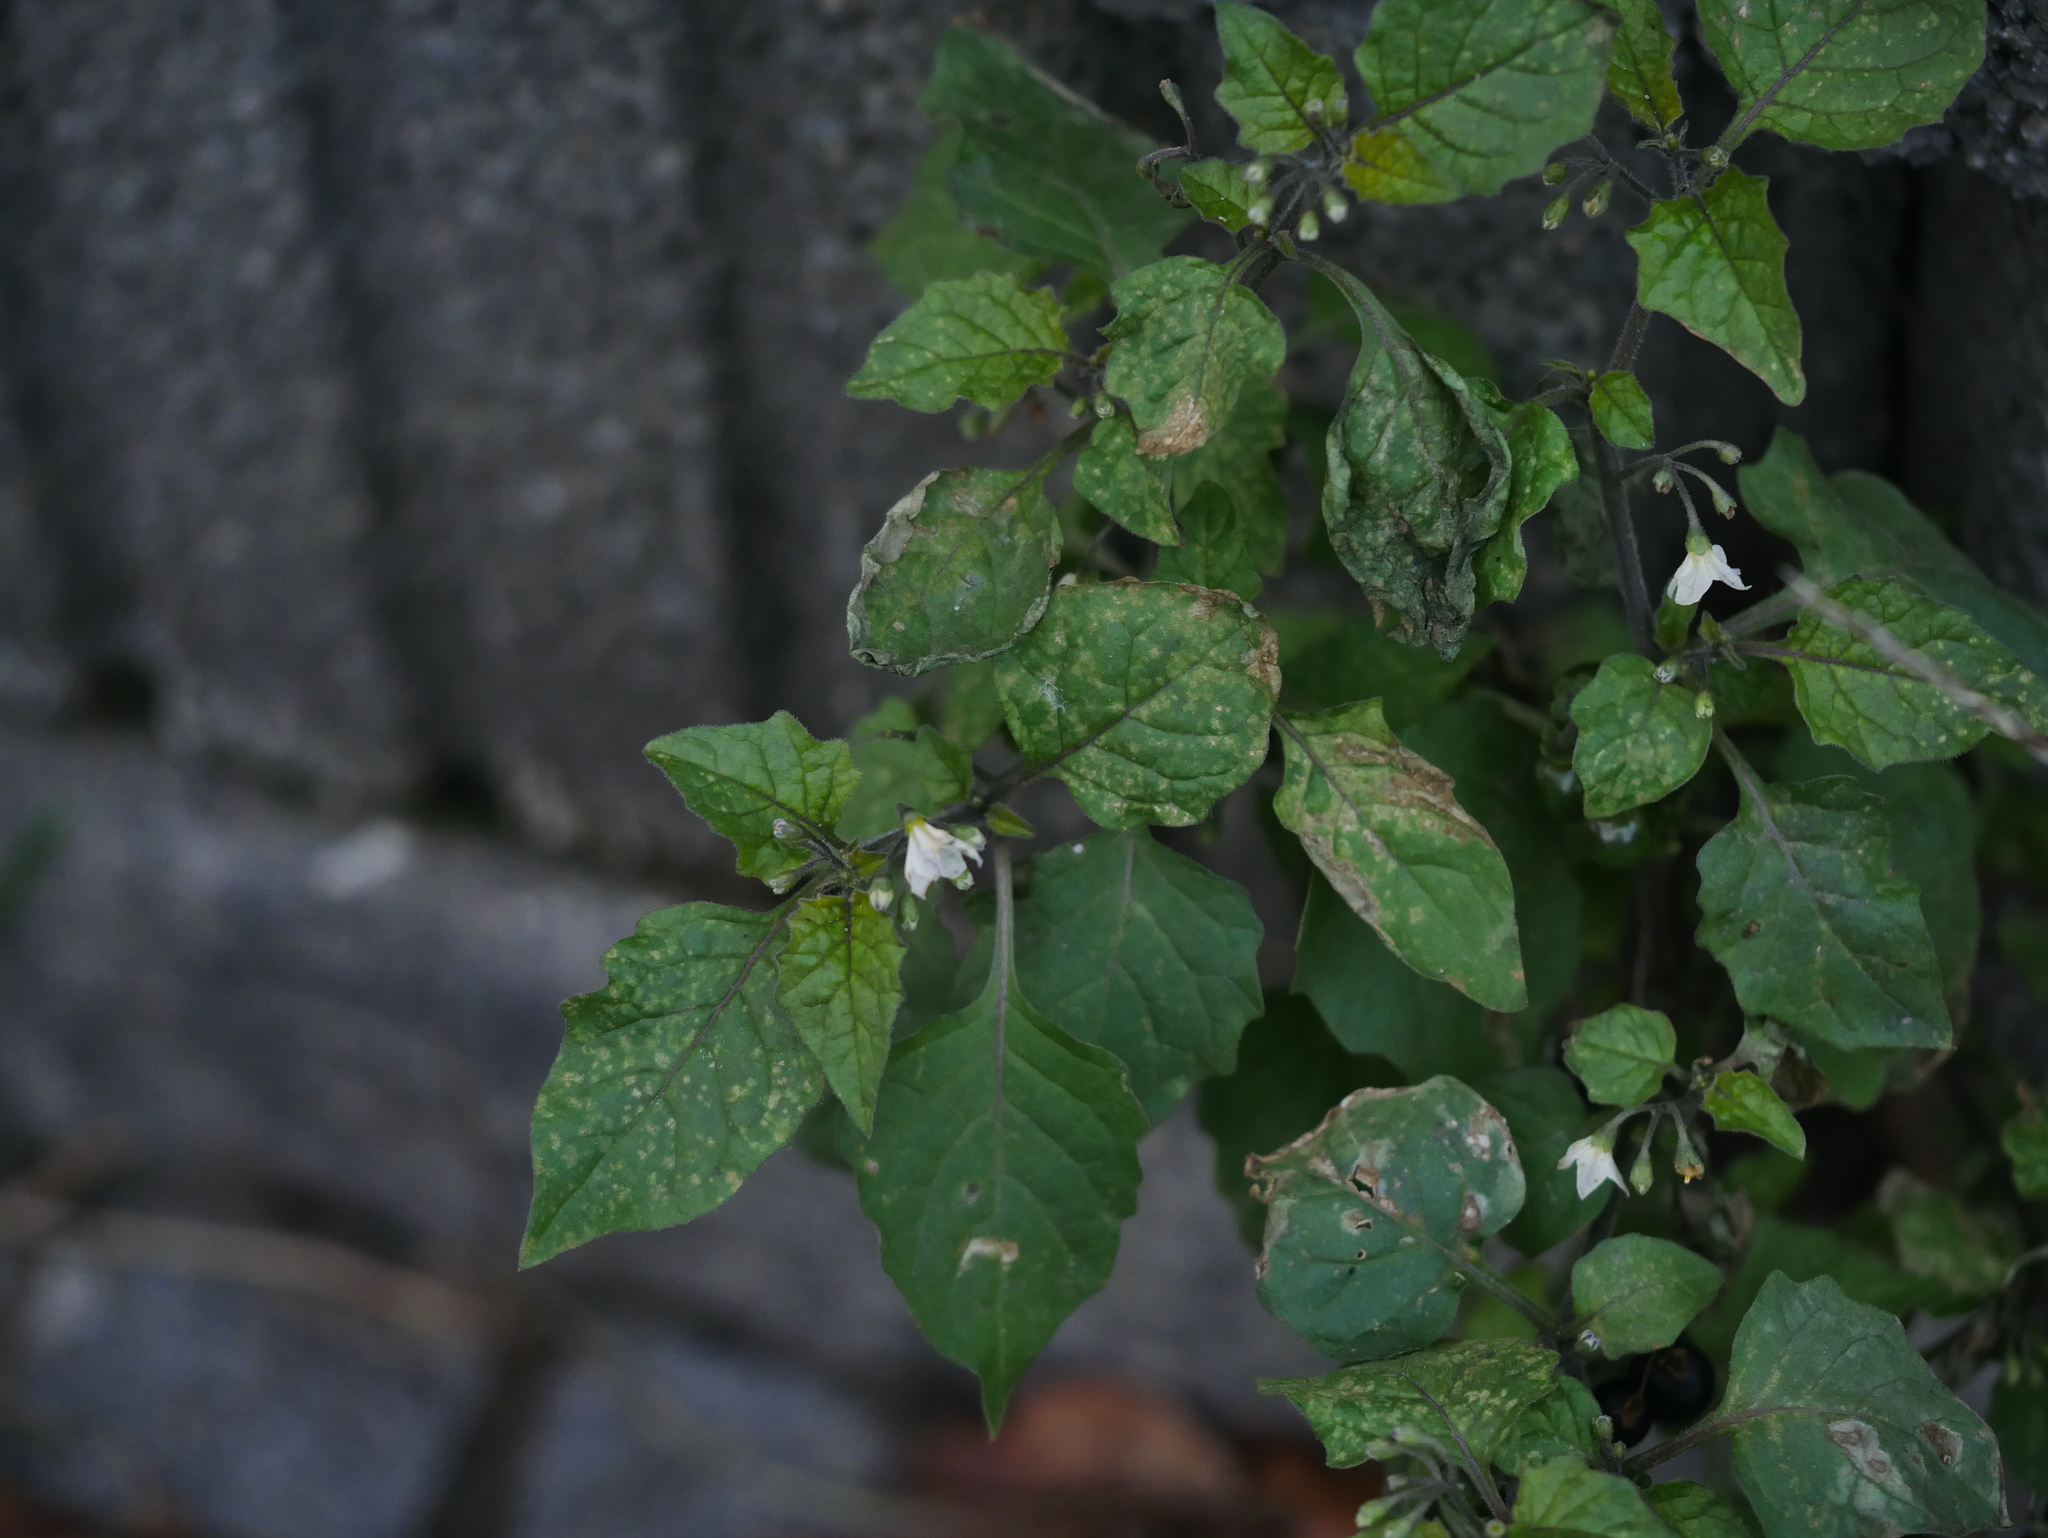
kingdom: Plantae
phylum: Tracheophyta
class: Magnoliopsida
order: Solanales
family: Solanaceae
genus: Solanum
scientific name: Solanum nigrum
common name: Black nightshade
